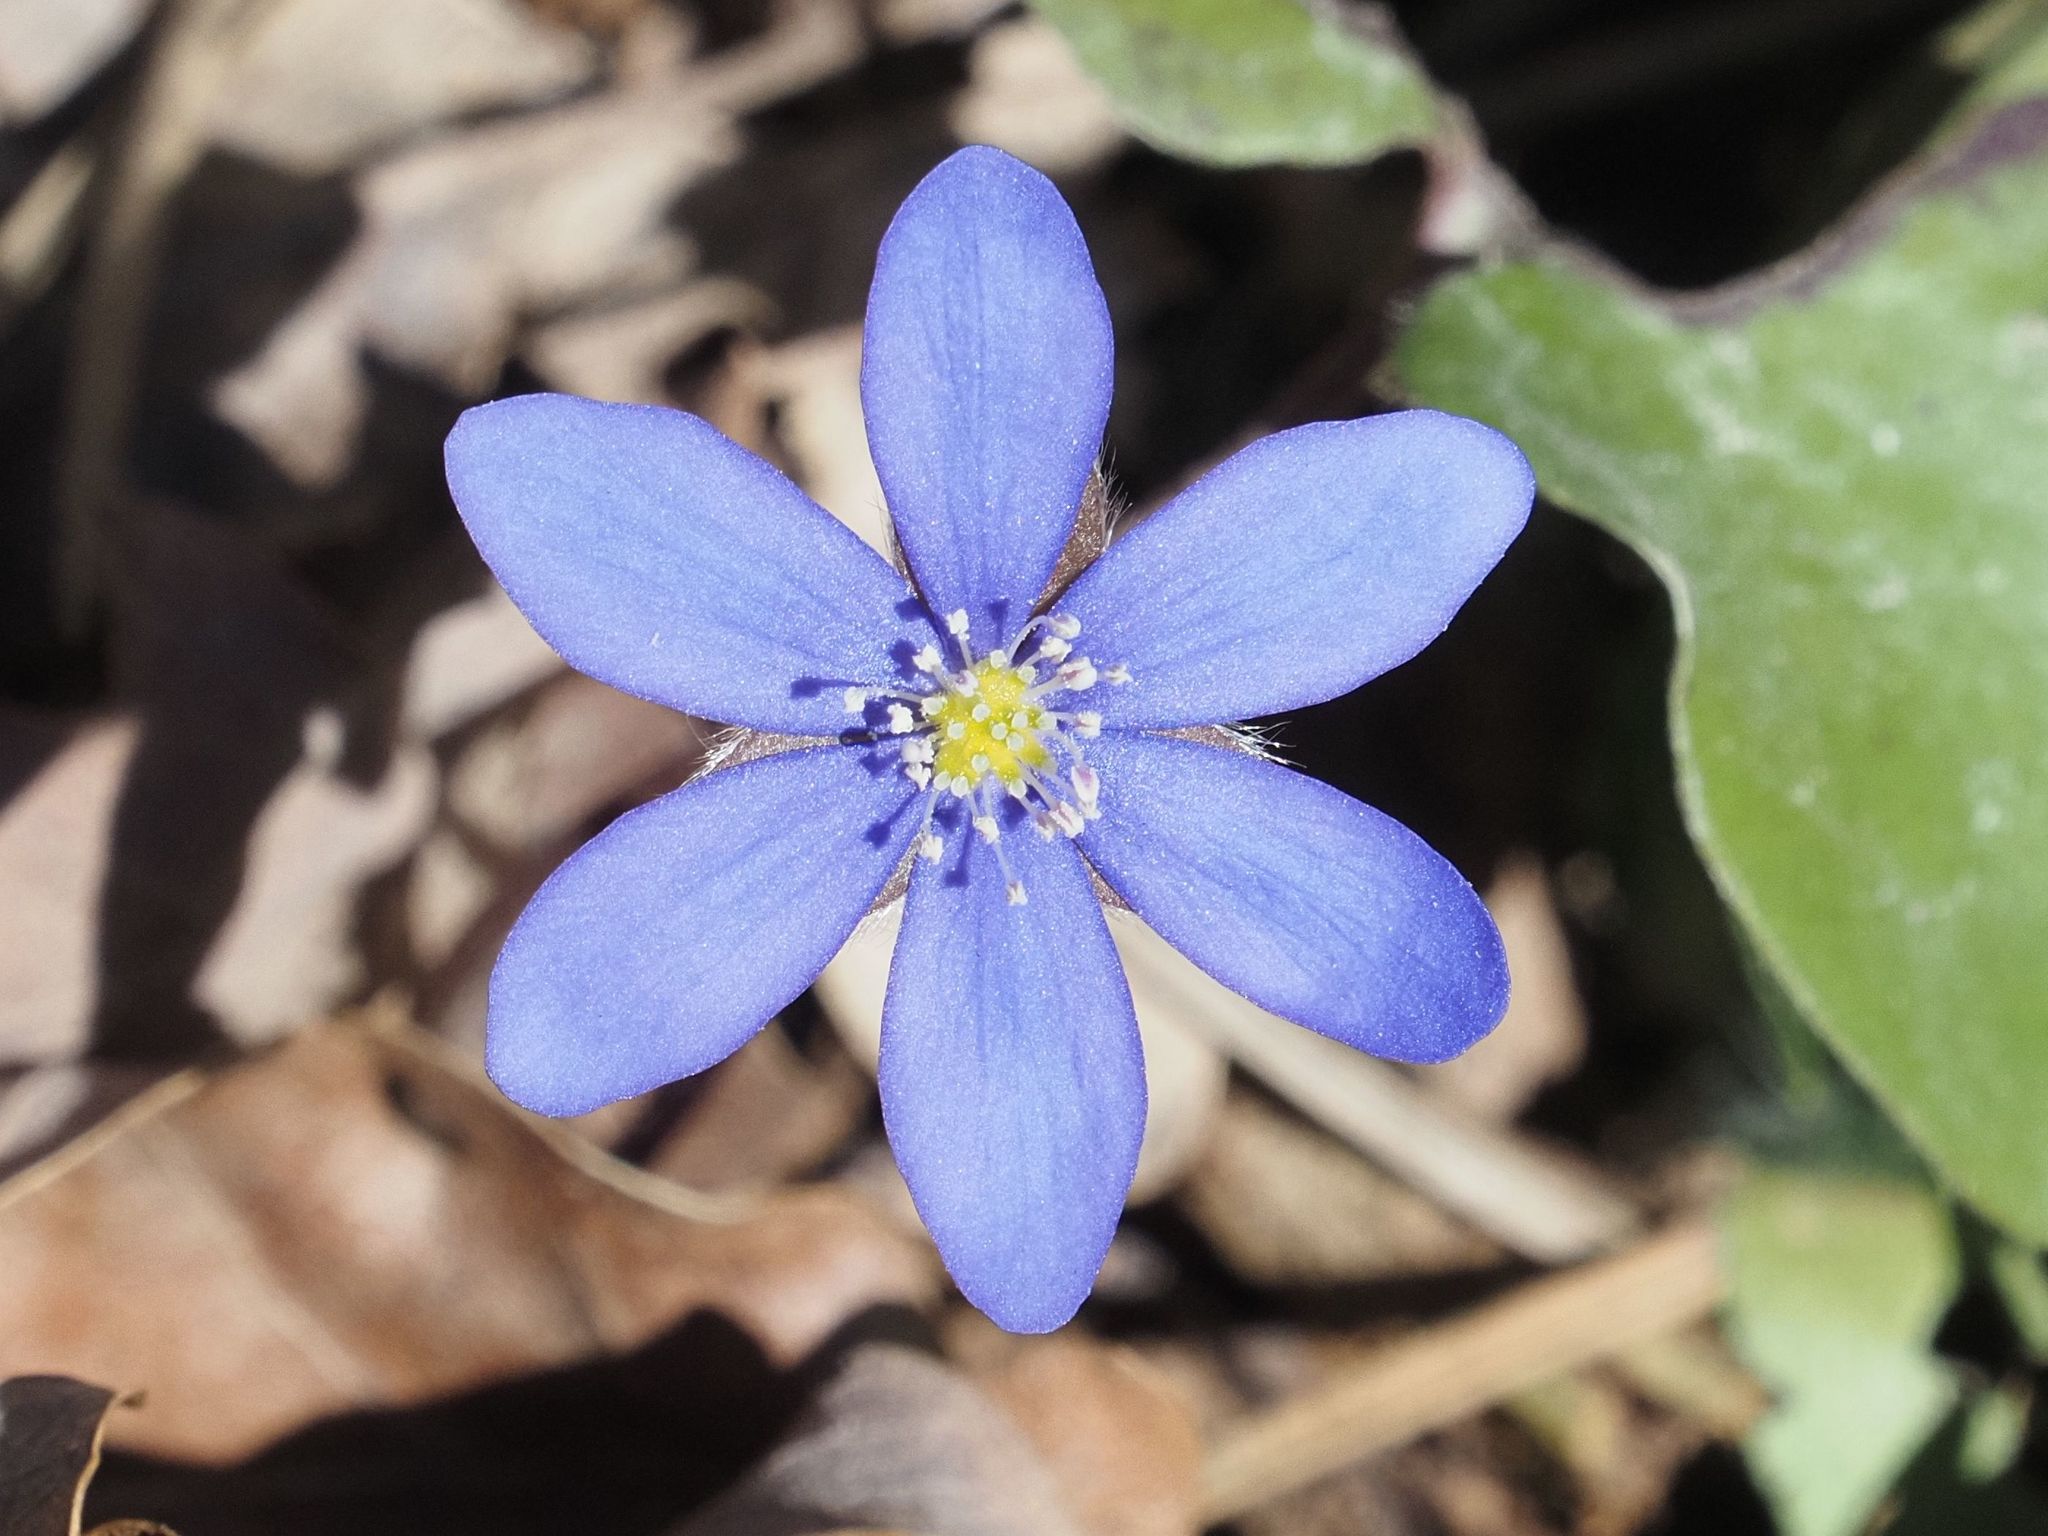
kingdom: Plantae
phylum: Tracheophyta
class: Magnoliopsida
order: Ranunculales
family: Ranunculaceae
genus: Hepatica
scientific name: Hepatica nobilis
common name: Liverleaf
